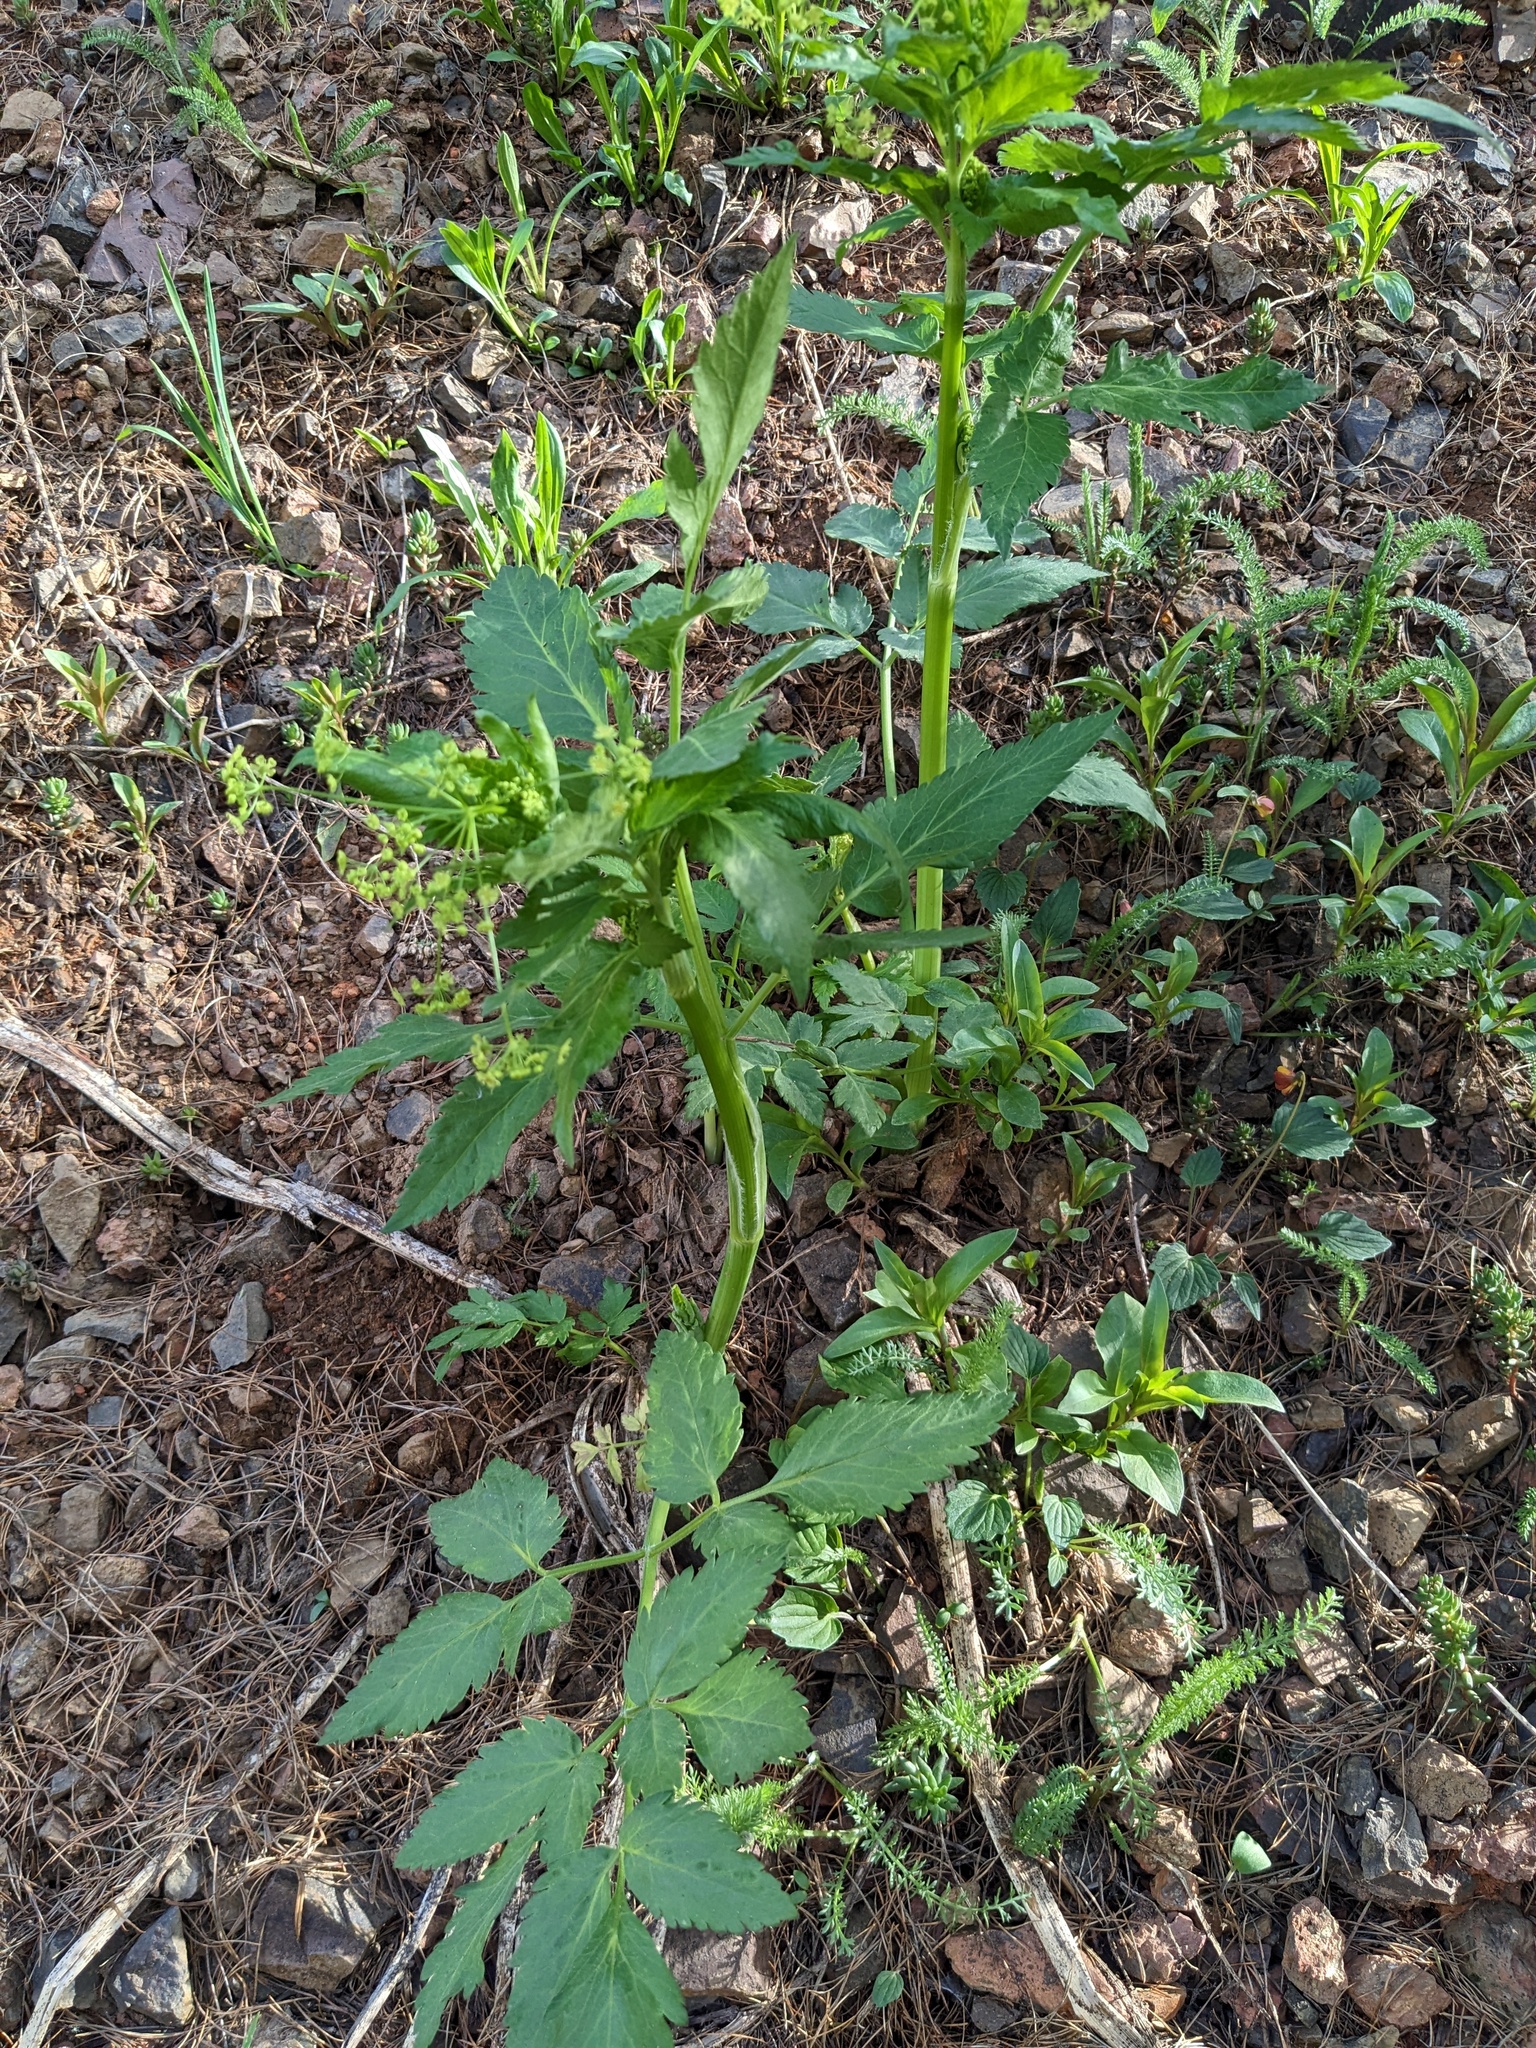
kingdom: Plantae
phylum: Tracheophyta
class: Magnoliopsida
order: Apiales
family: Apiaceae
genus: Osmorhiza
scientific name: Osmorhiza occidentalis
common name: Western sweet cicely
